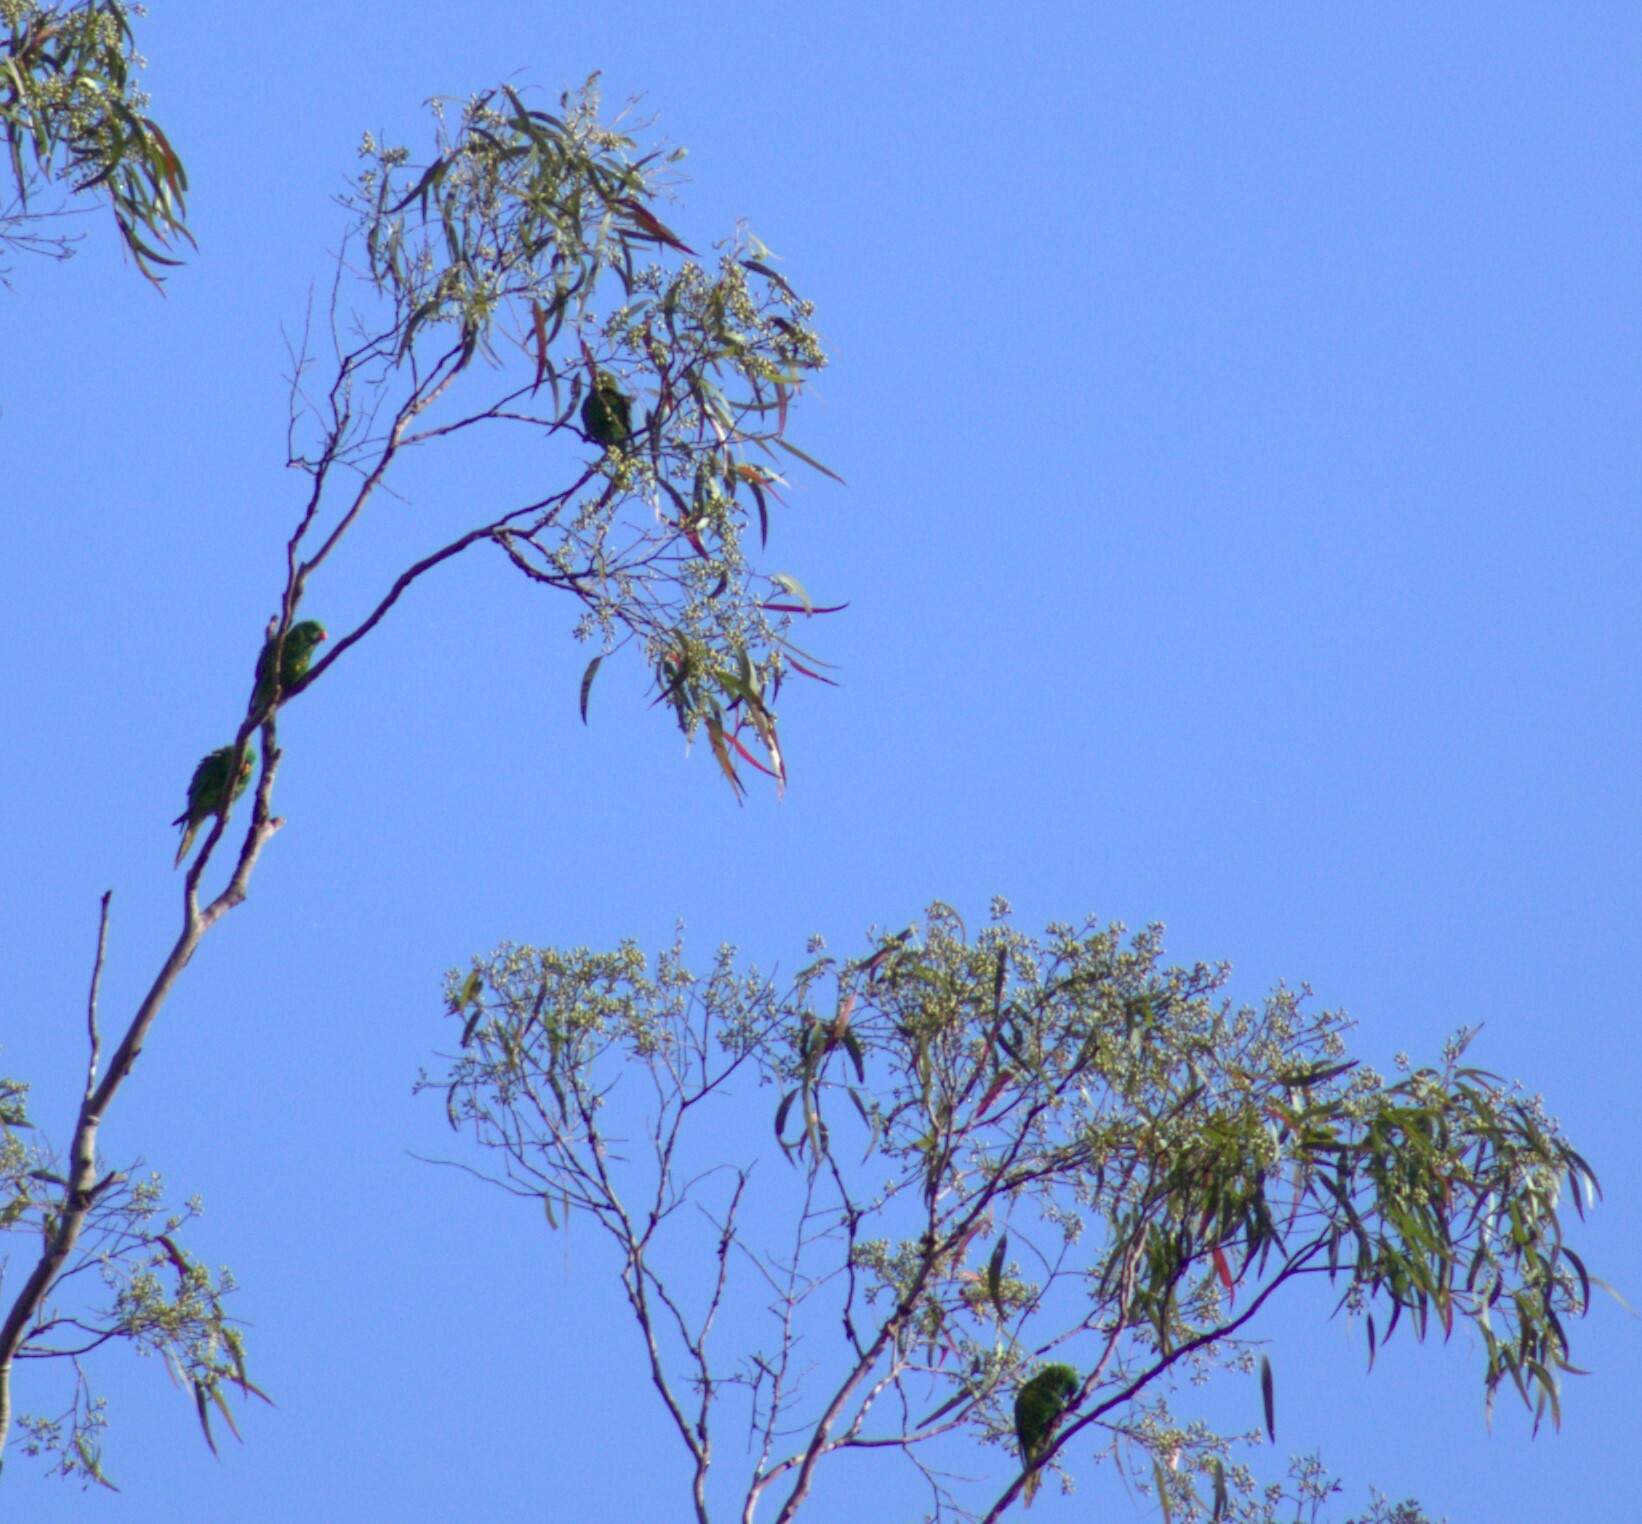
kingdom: Animalia
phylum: Chordata
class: Aves
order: Psittaciformes
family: Psittacidae
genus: Trichoglossus
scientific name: Trichoglossus chlorolepidotus
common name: Scaly-breasted lorikeet
